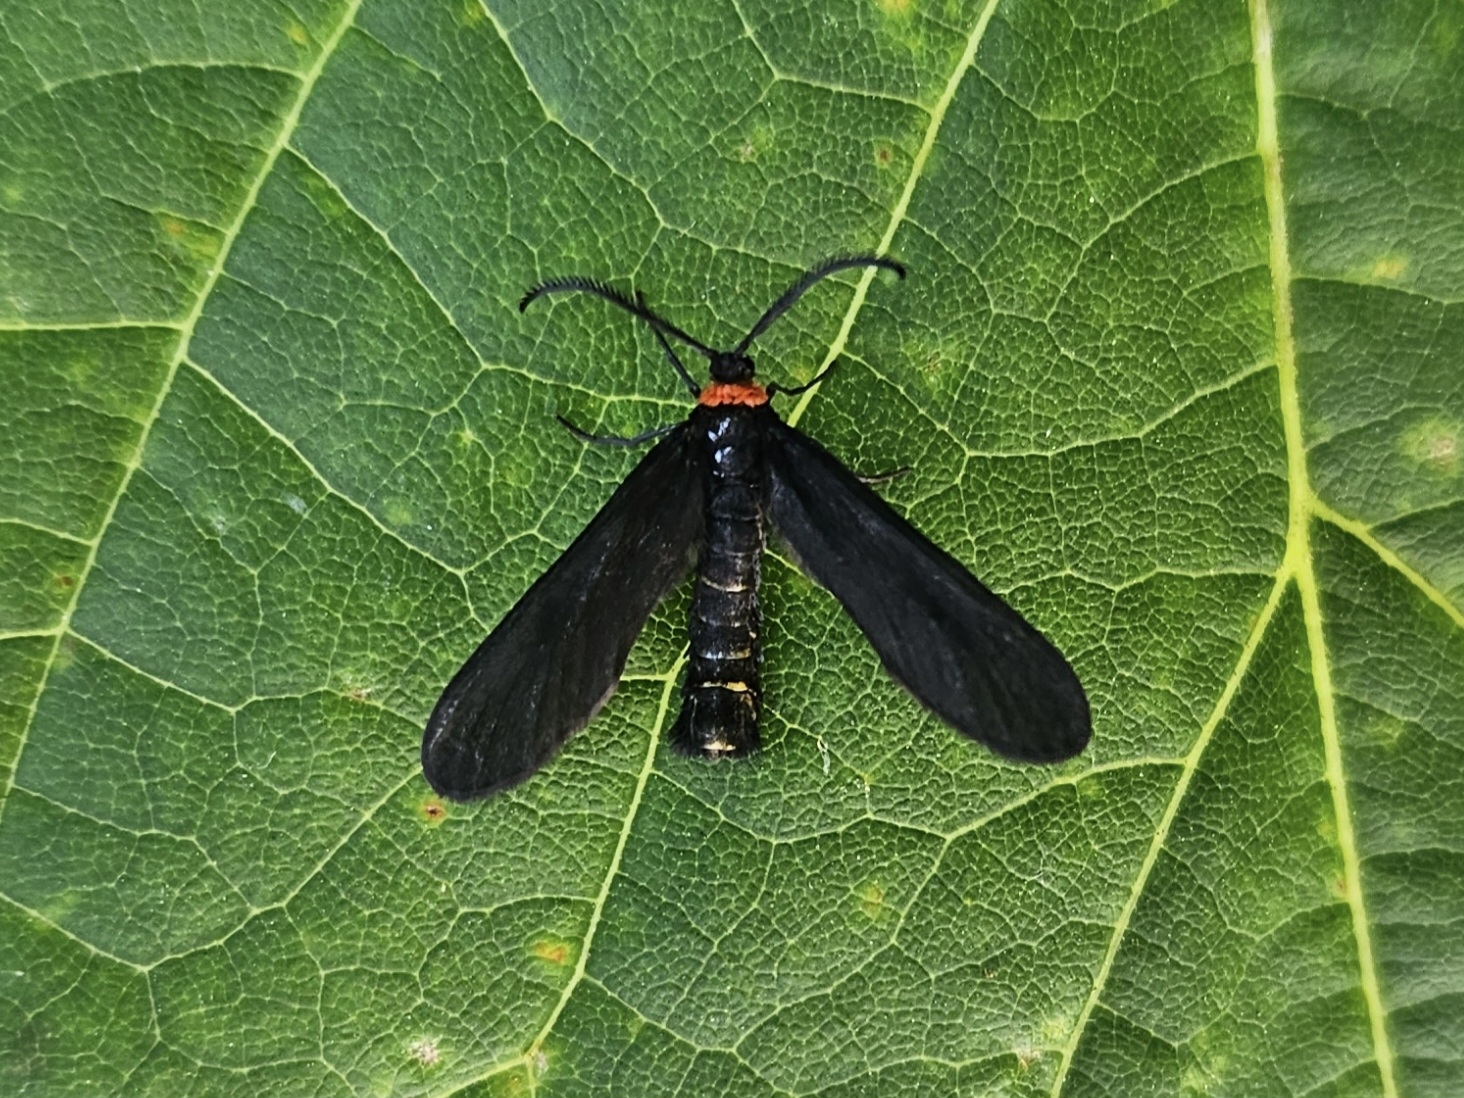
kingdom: Animalia
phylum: Arthropoda
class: Insecta
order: Lepidoptera
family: Zygaenidae
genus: Harrisina
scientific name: Harrisina americana
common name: Grapeleaf skeletonizer moth
